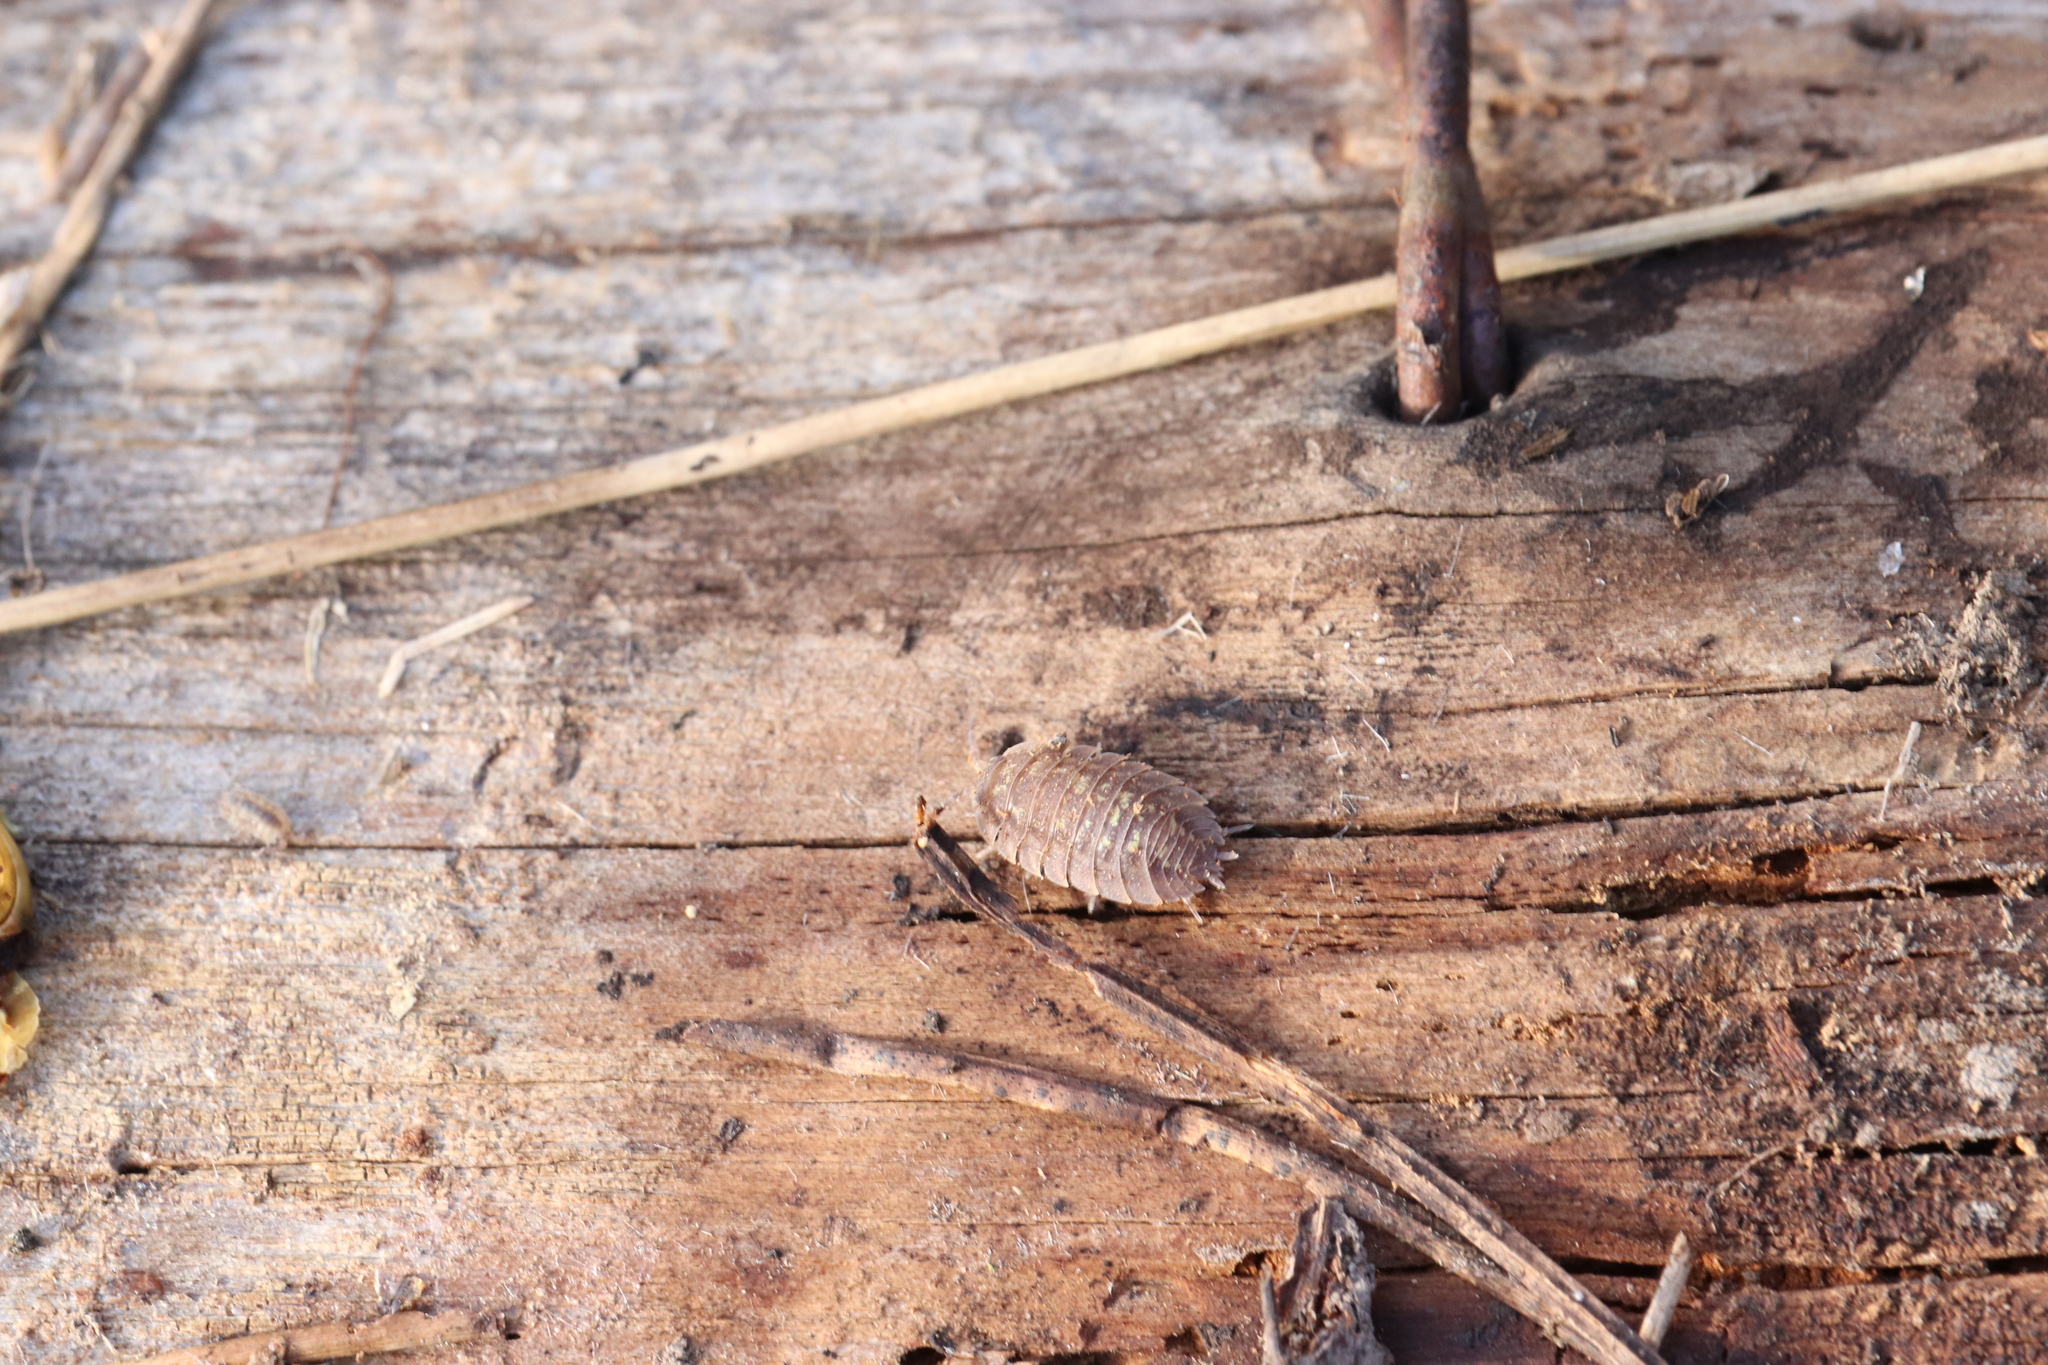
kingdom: Animalia
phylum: Arthropoda
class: Malacostraca
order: Isopoda
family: Oniscidae
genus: Oniscus
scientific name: Oniscus asellus
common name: Common shiny woodlouse
